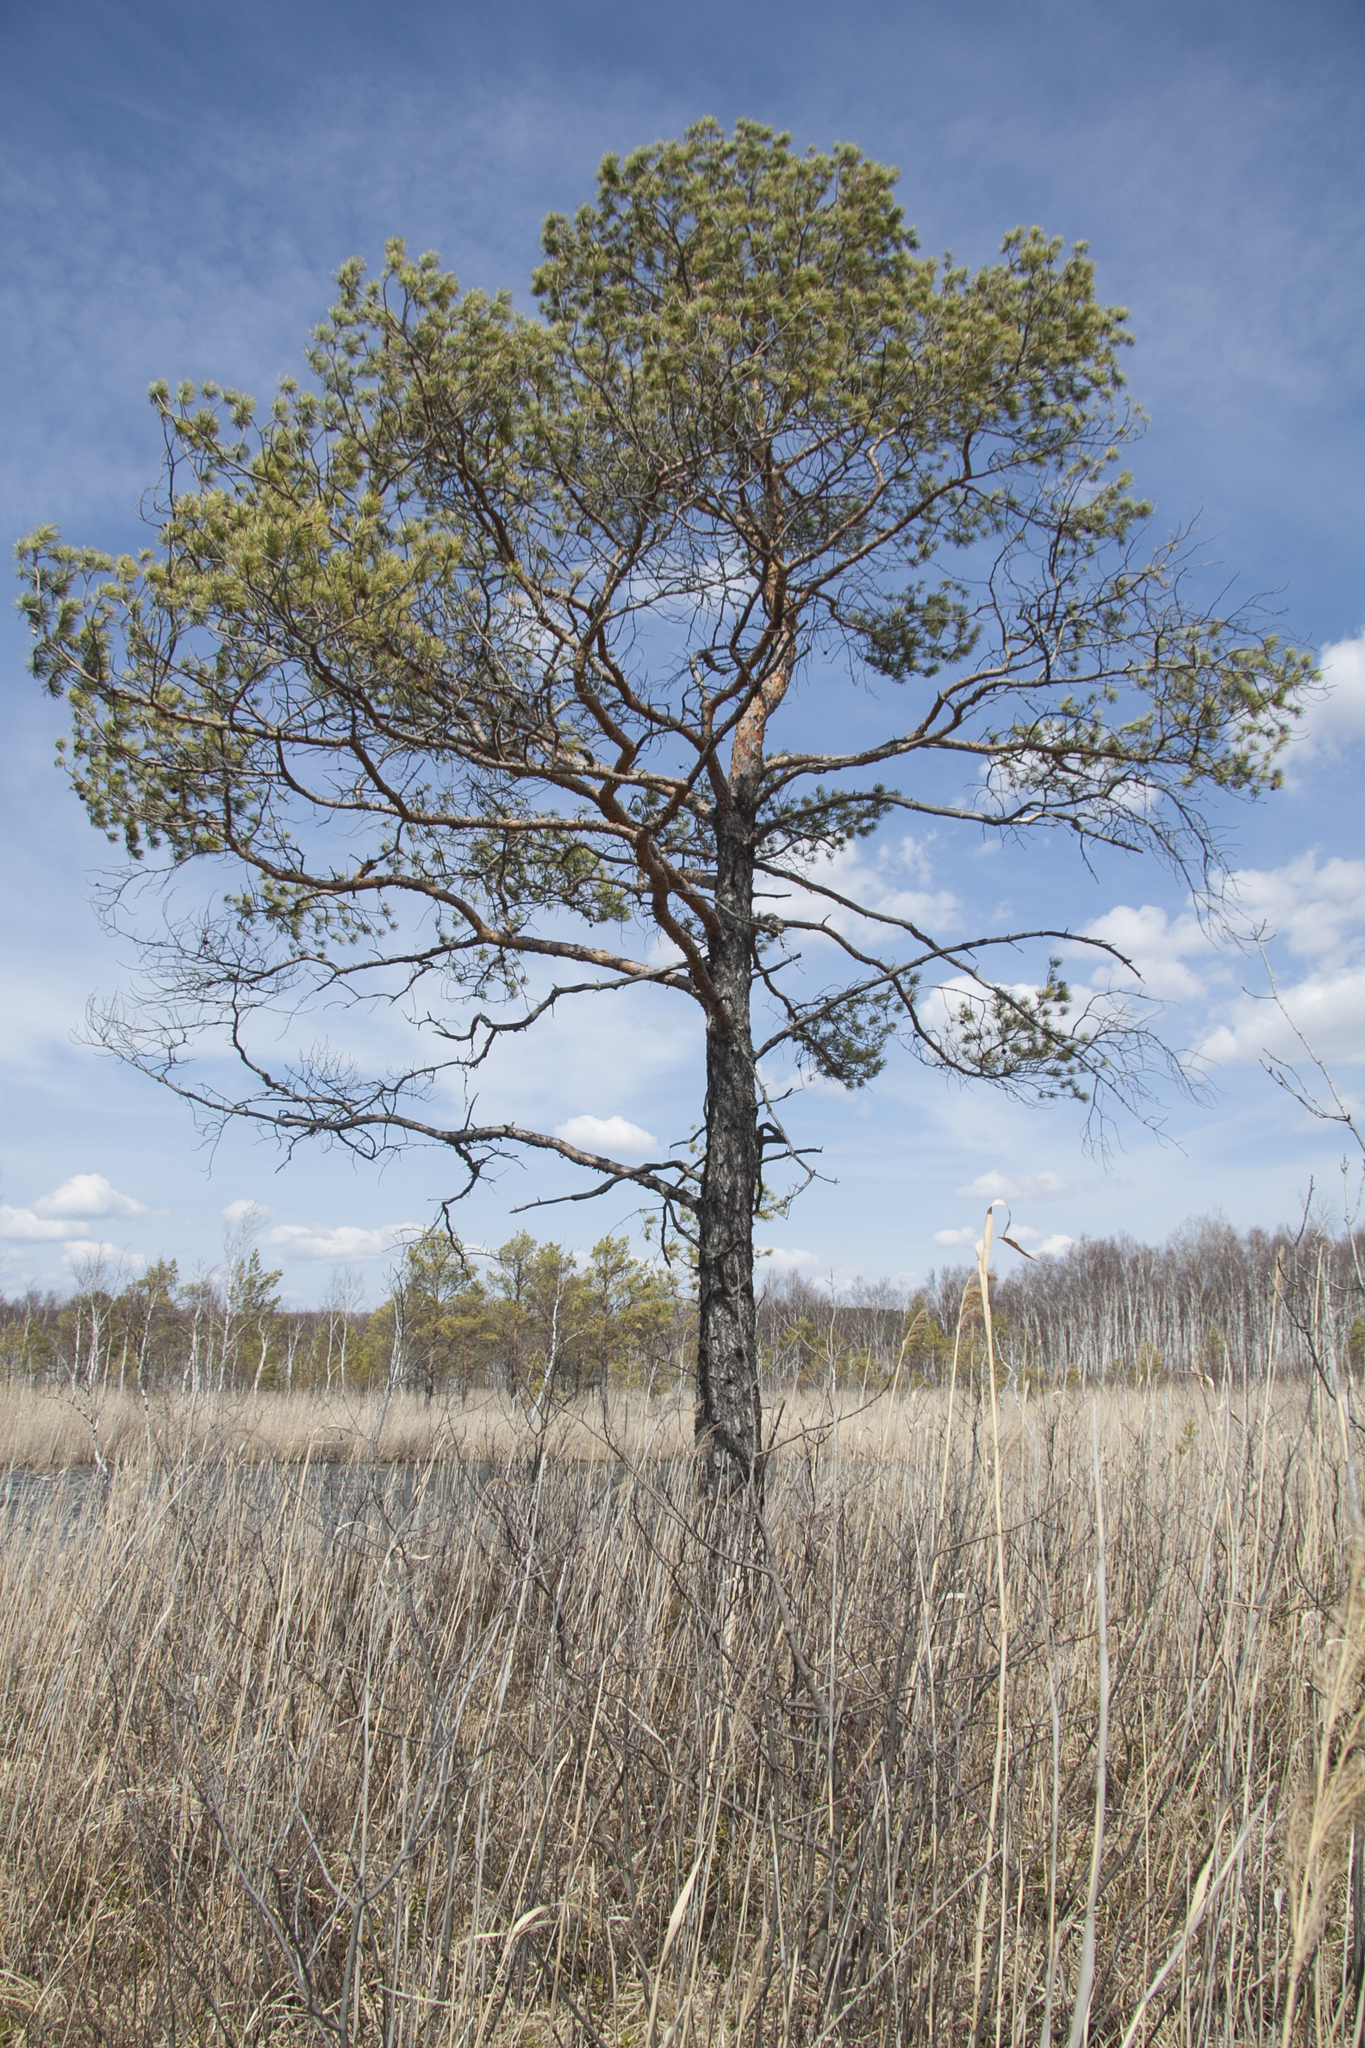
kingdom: Plantae
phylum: Tracheophyta
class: Pinopsida
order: Pinales
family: Pinaceae
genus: Pinus
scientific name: Pinus sylvestris
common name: Scots pine
